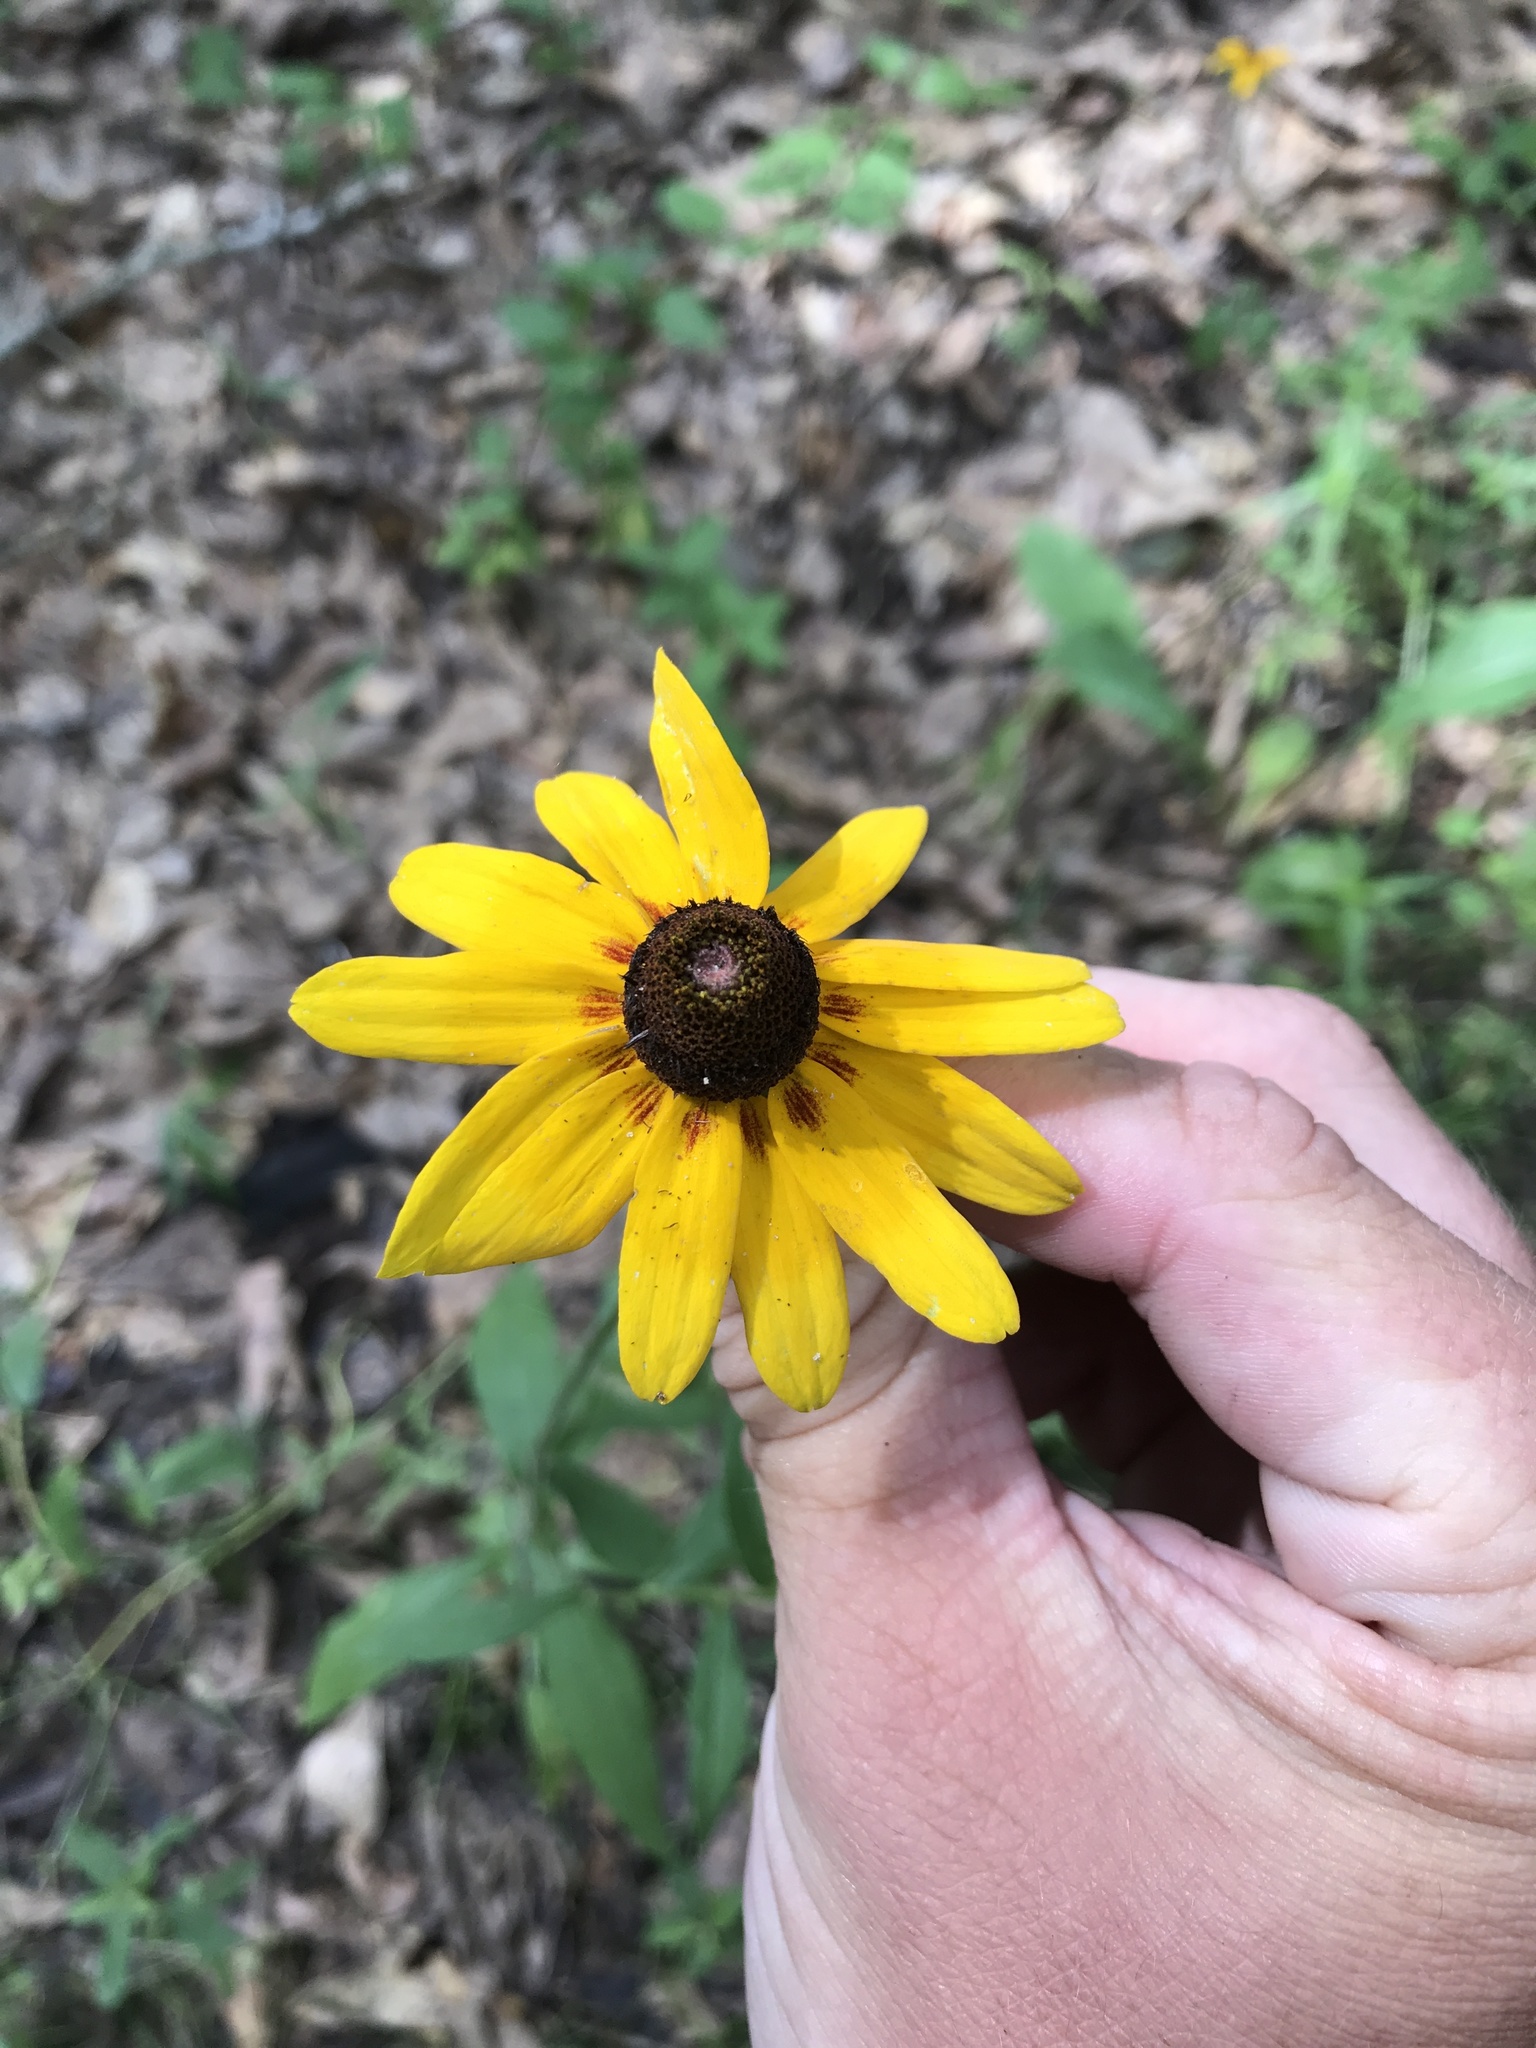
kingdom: Plantae
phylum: Tracheophyta
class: Magnoliopsida
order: Asterales
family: Asteraceae
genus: Rudbeckia
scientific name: Rudbeckia hirta
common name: Black-eyed-susan
